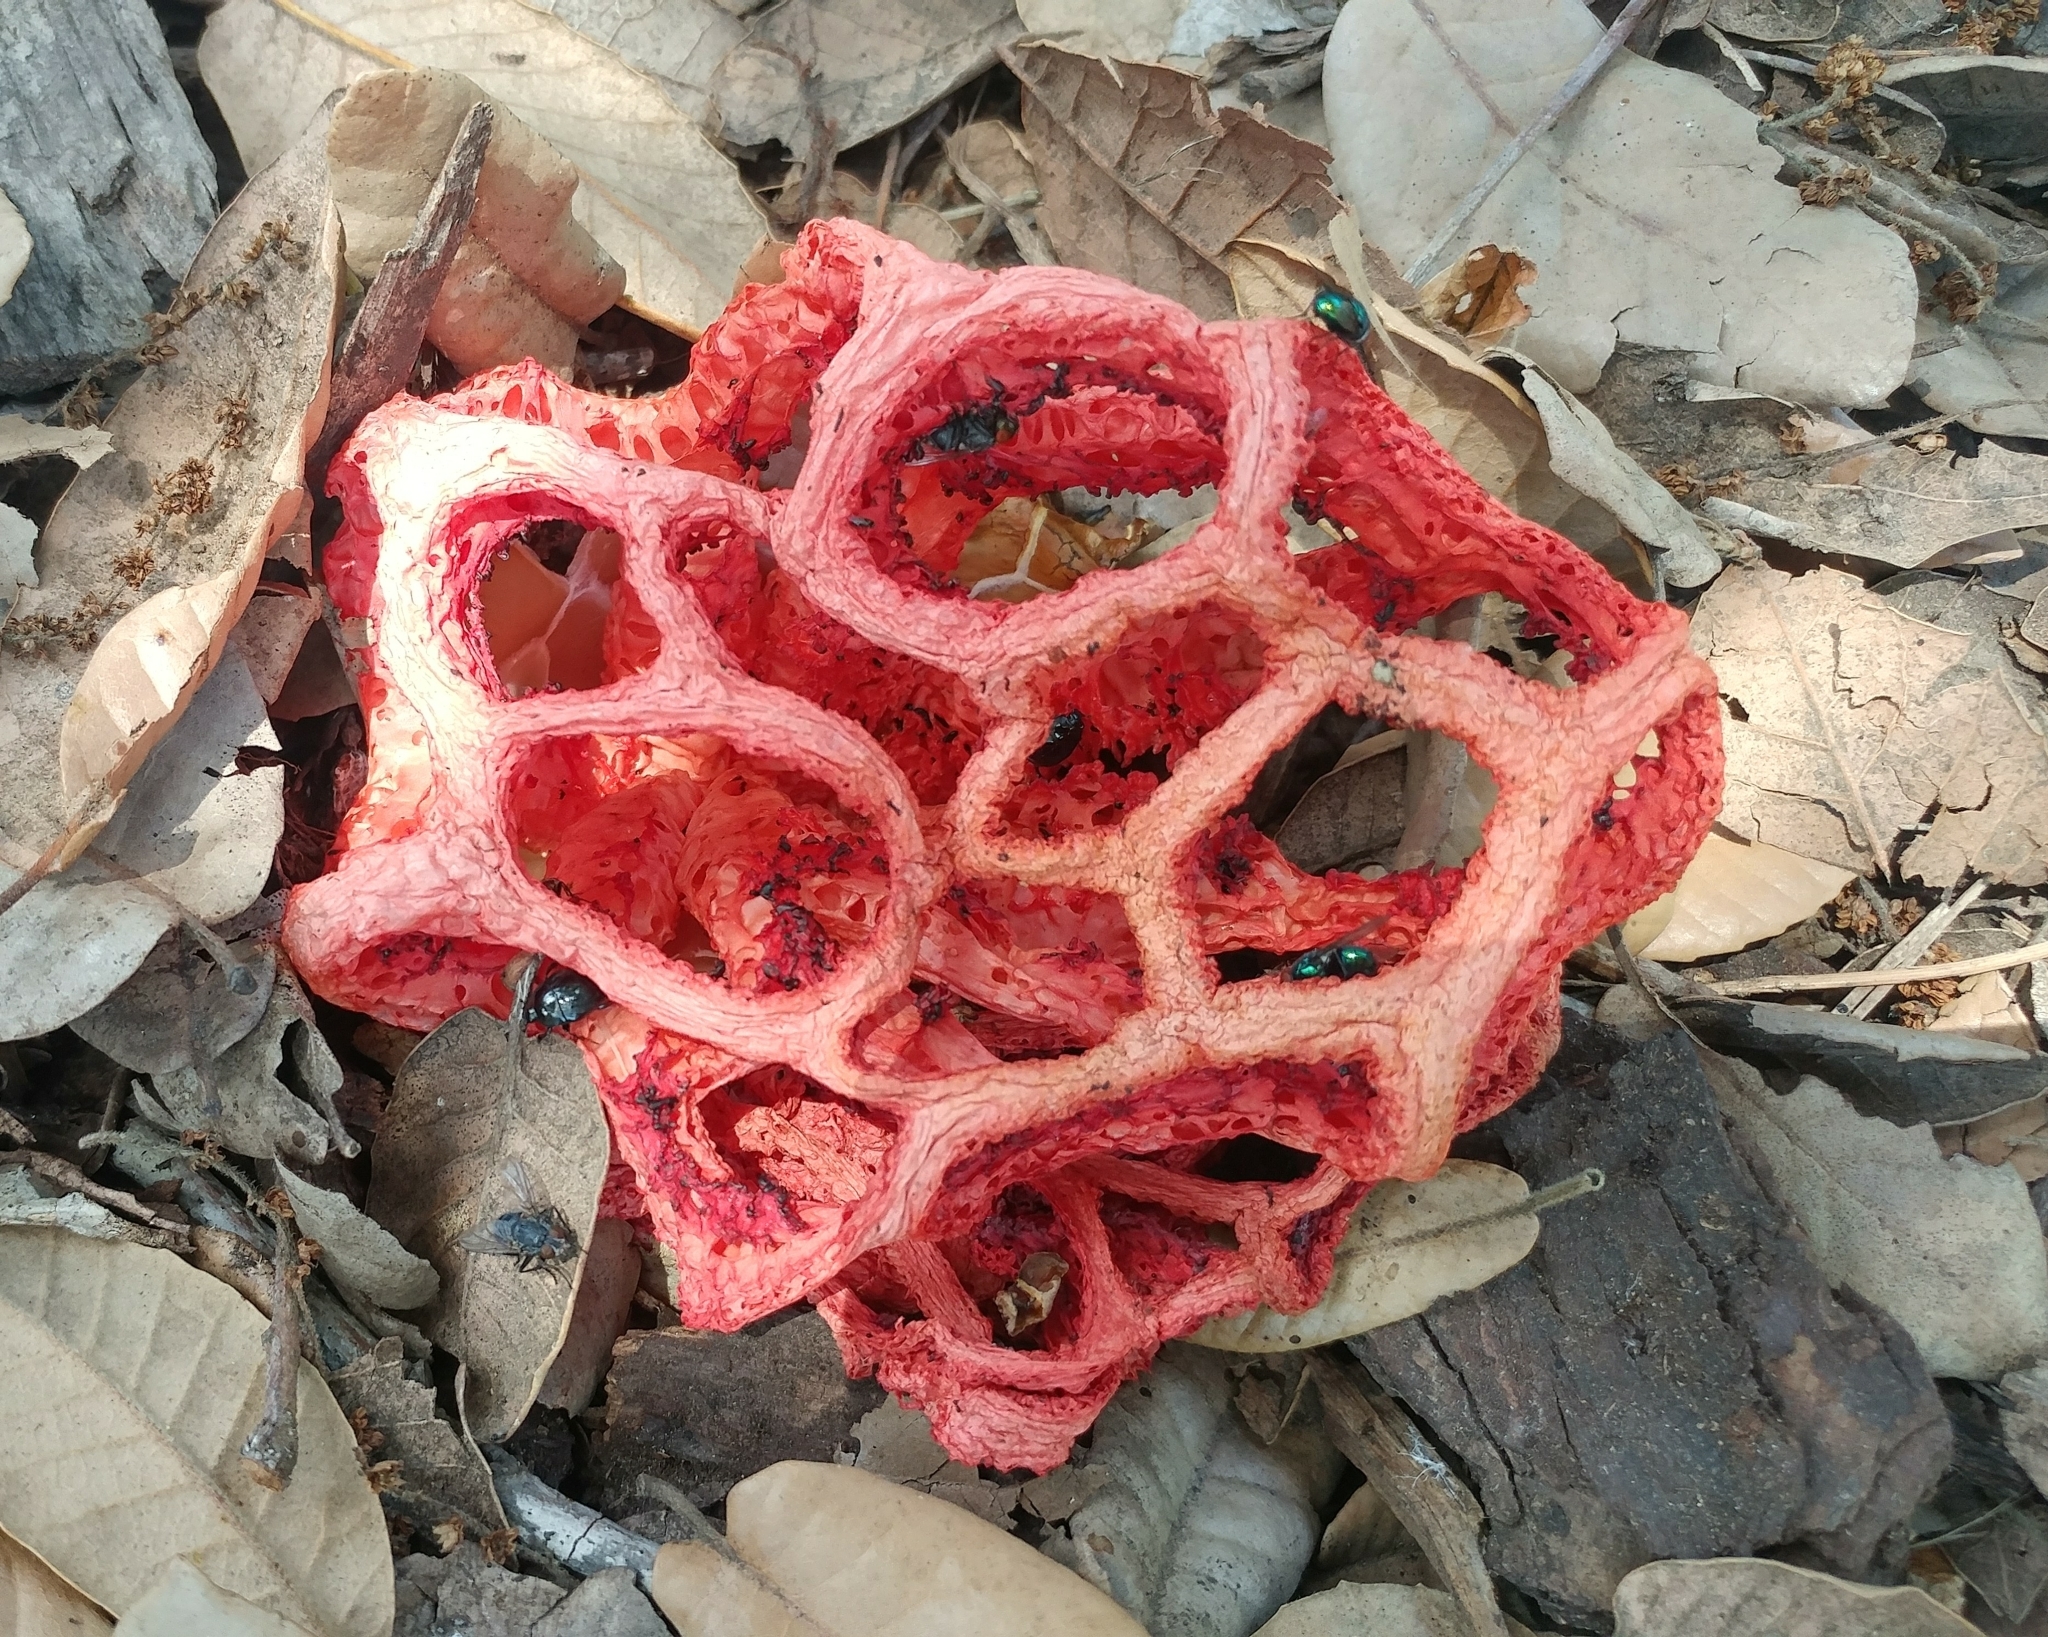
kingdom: Fungi
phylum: Basidiomycota
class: Agaricomycetes
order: Phallales
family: Phallaceae
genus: Clathrus
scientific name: Clathrus ruber
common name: Red cage
